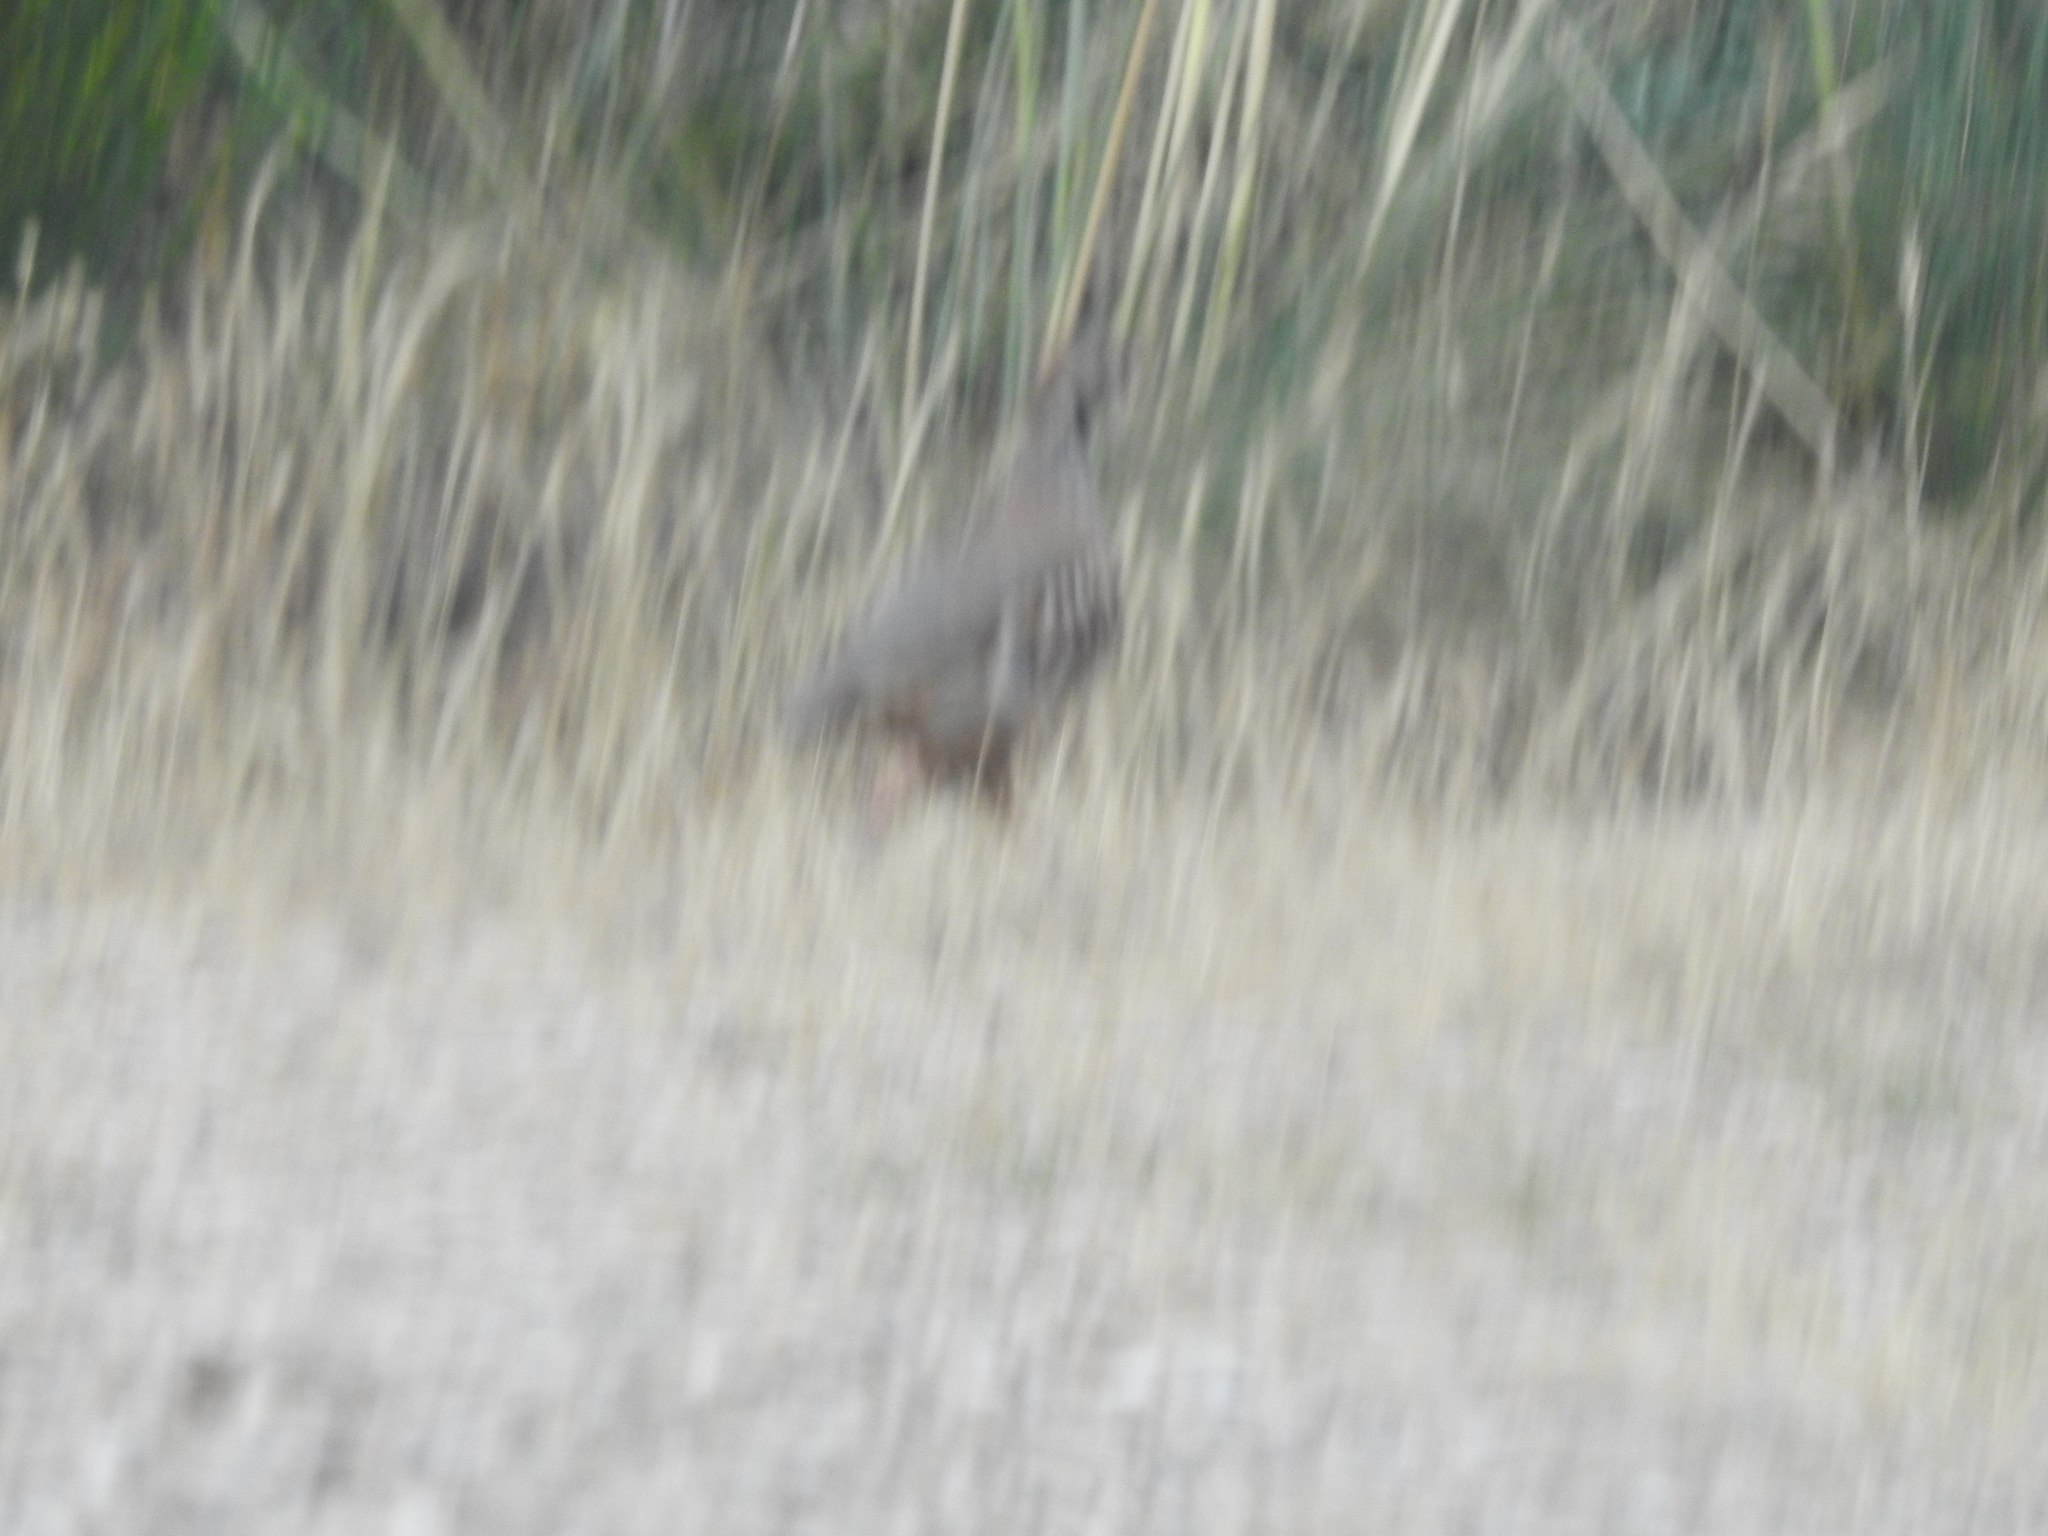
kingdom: Animalia
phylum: Chordata
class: Aves
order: Galliformes
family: Phasianidae
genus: Alectoris
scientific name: Alectoris rufa
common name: Red-legged partridge
